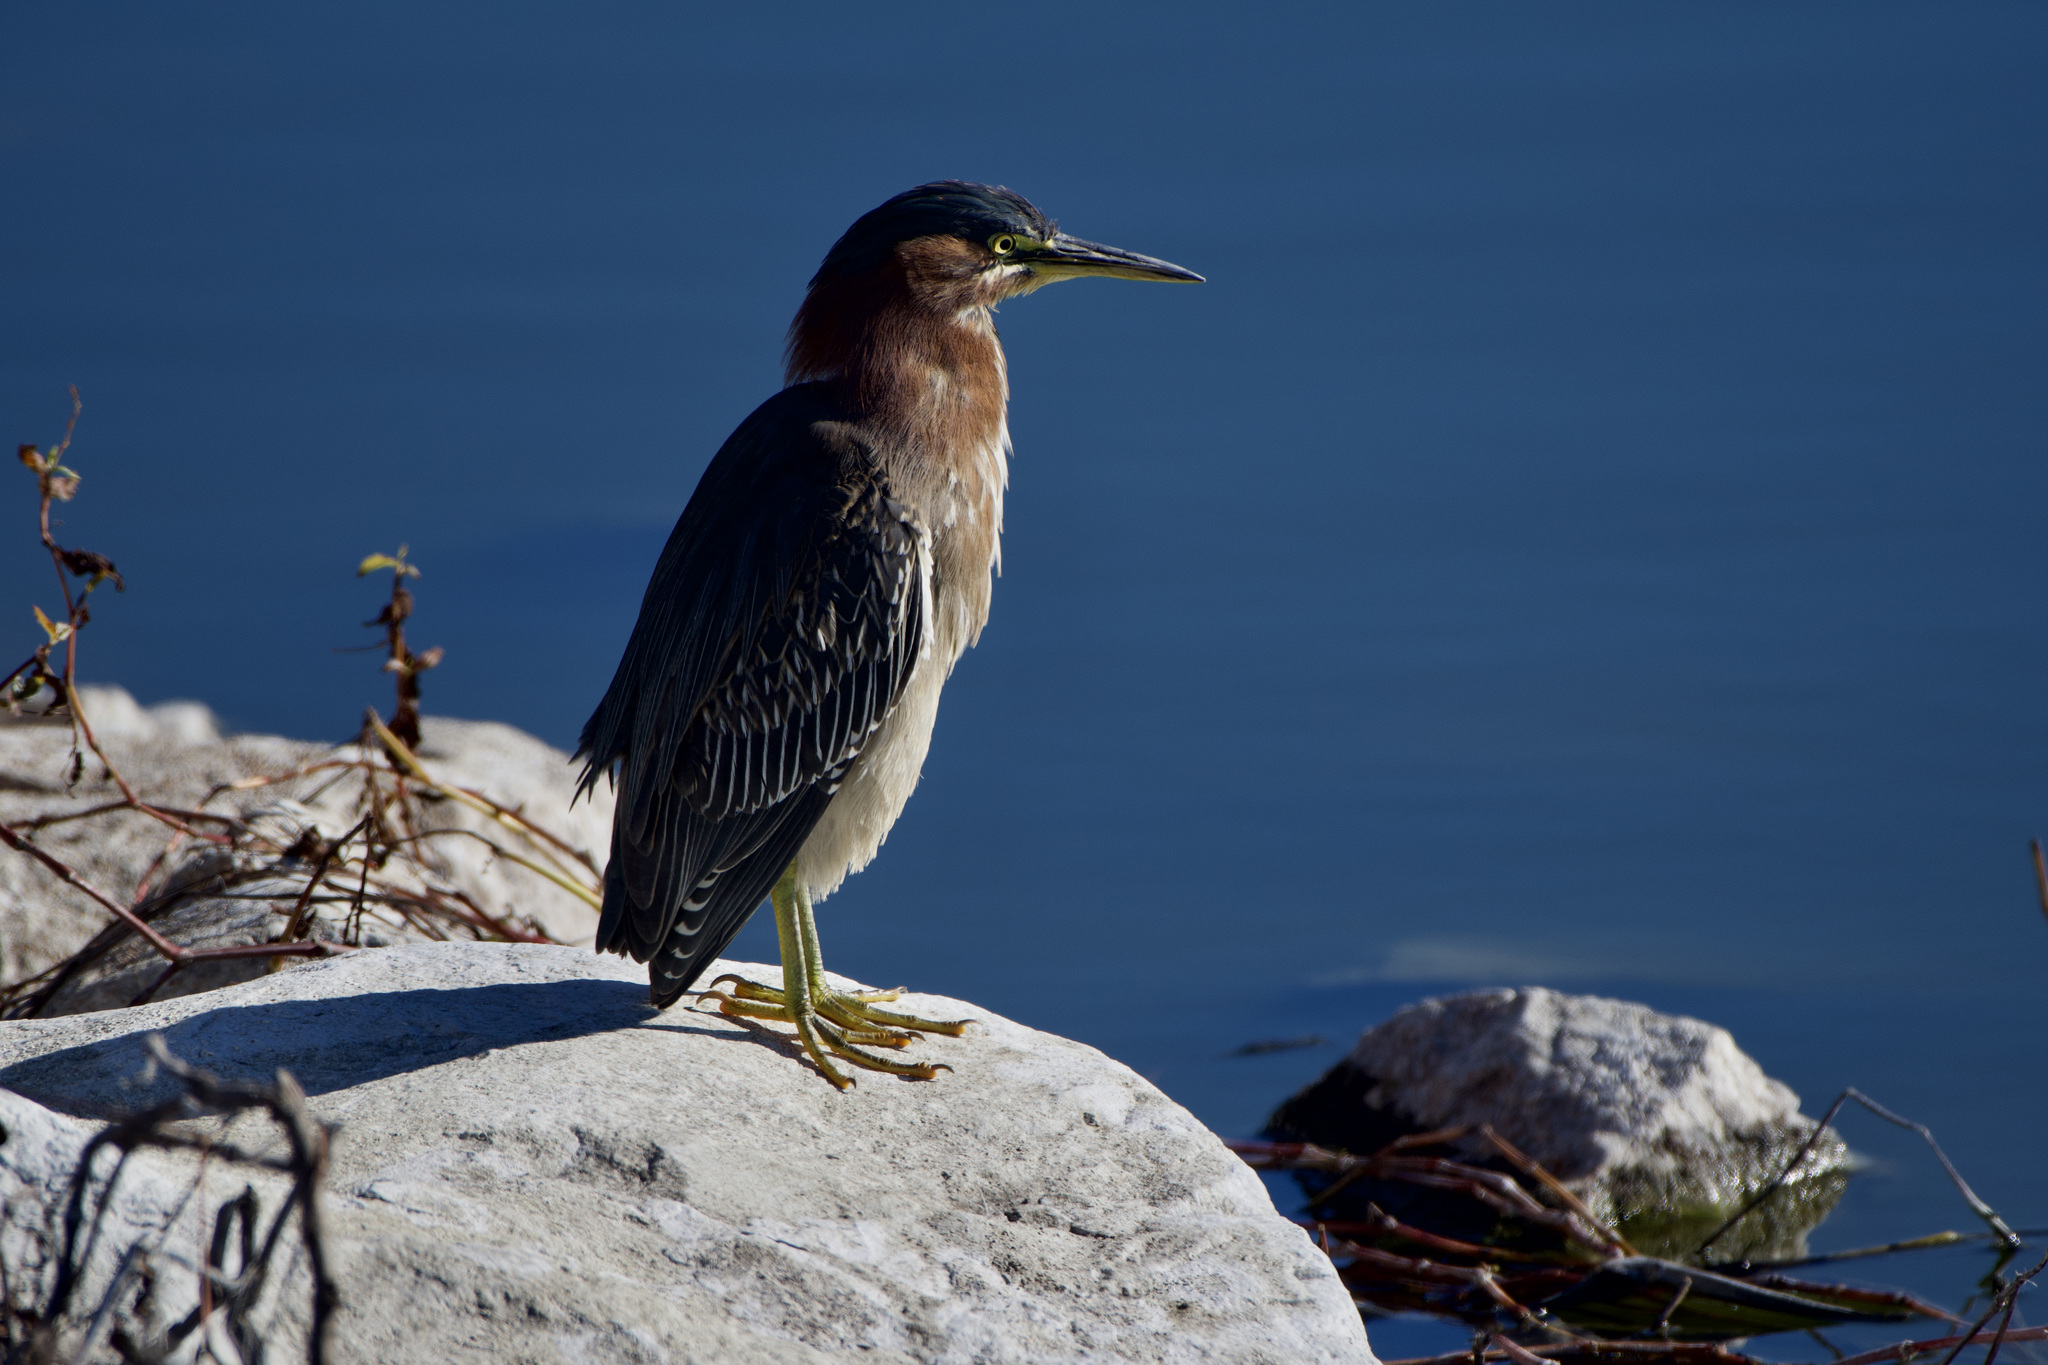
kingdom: Animalia
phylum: Chordata
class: Aves
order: Pelecaniformes
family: Ardeidae
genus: Butorides
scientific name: Butorides virescens
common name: Green heron
